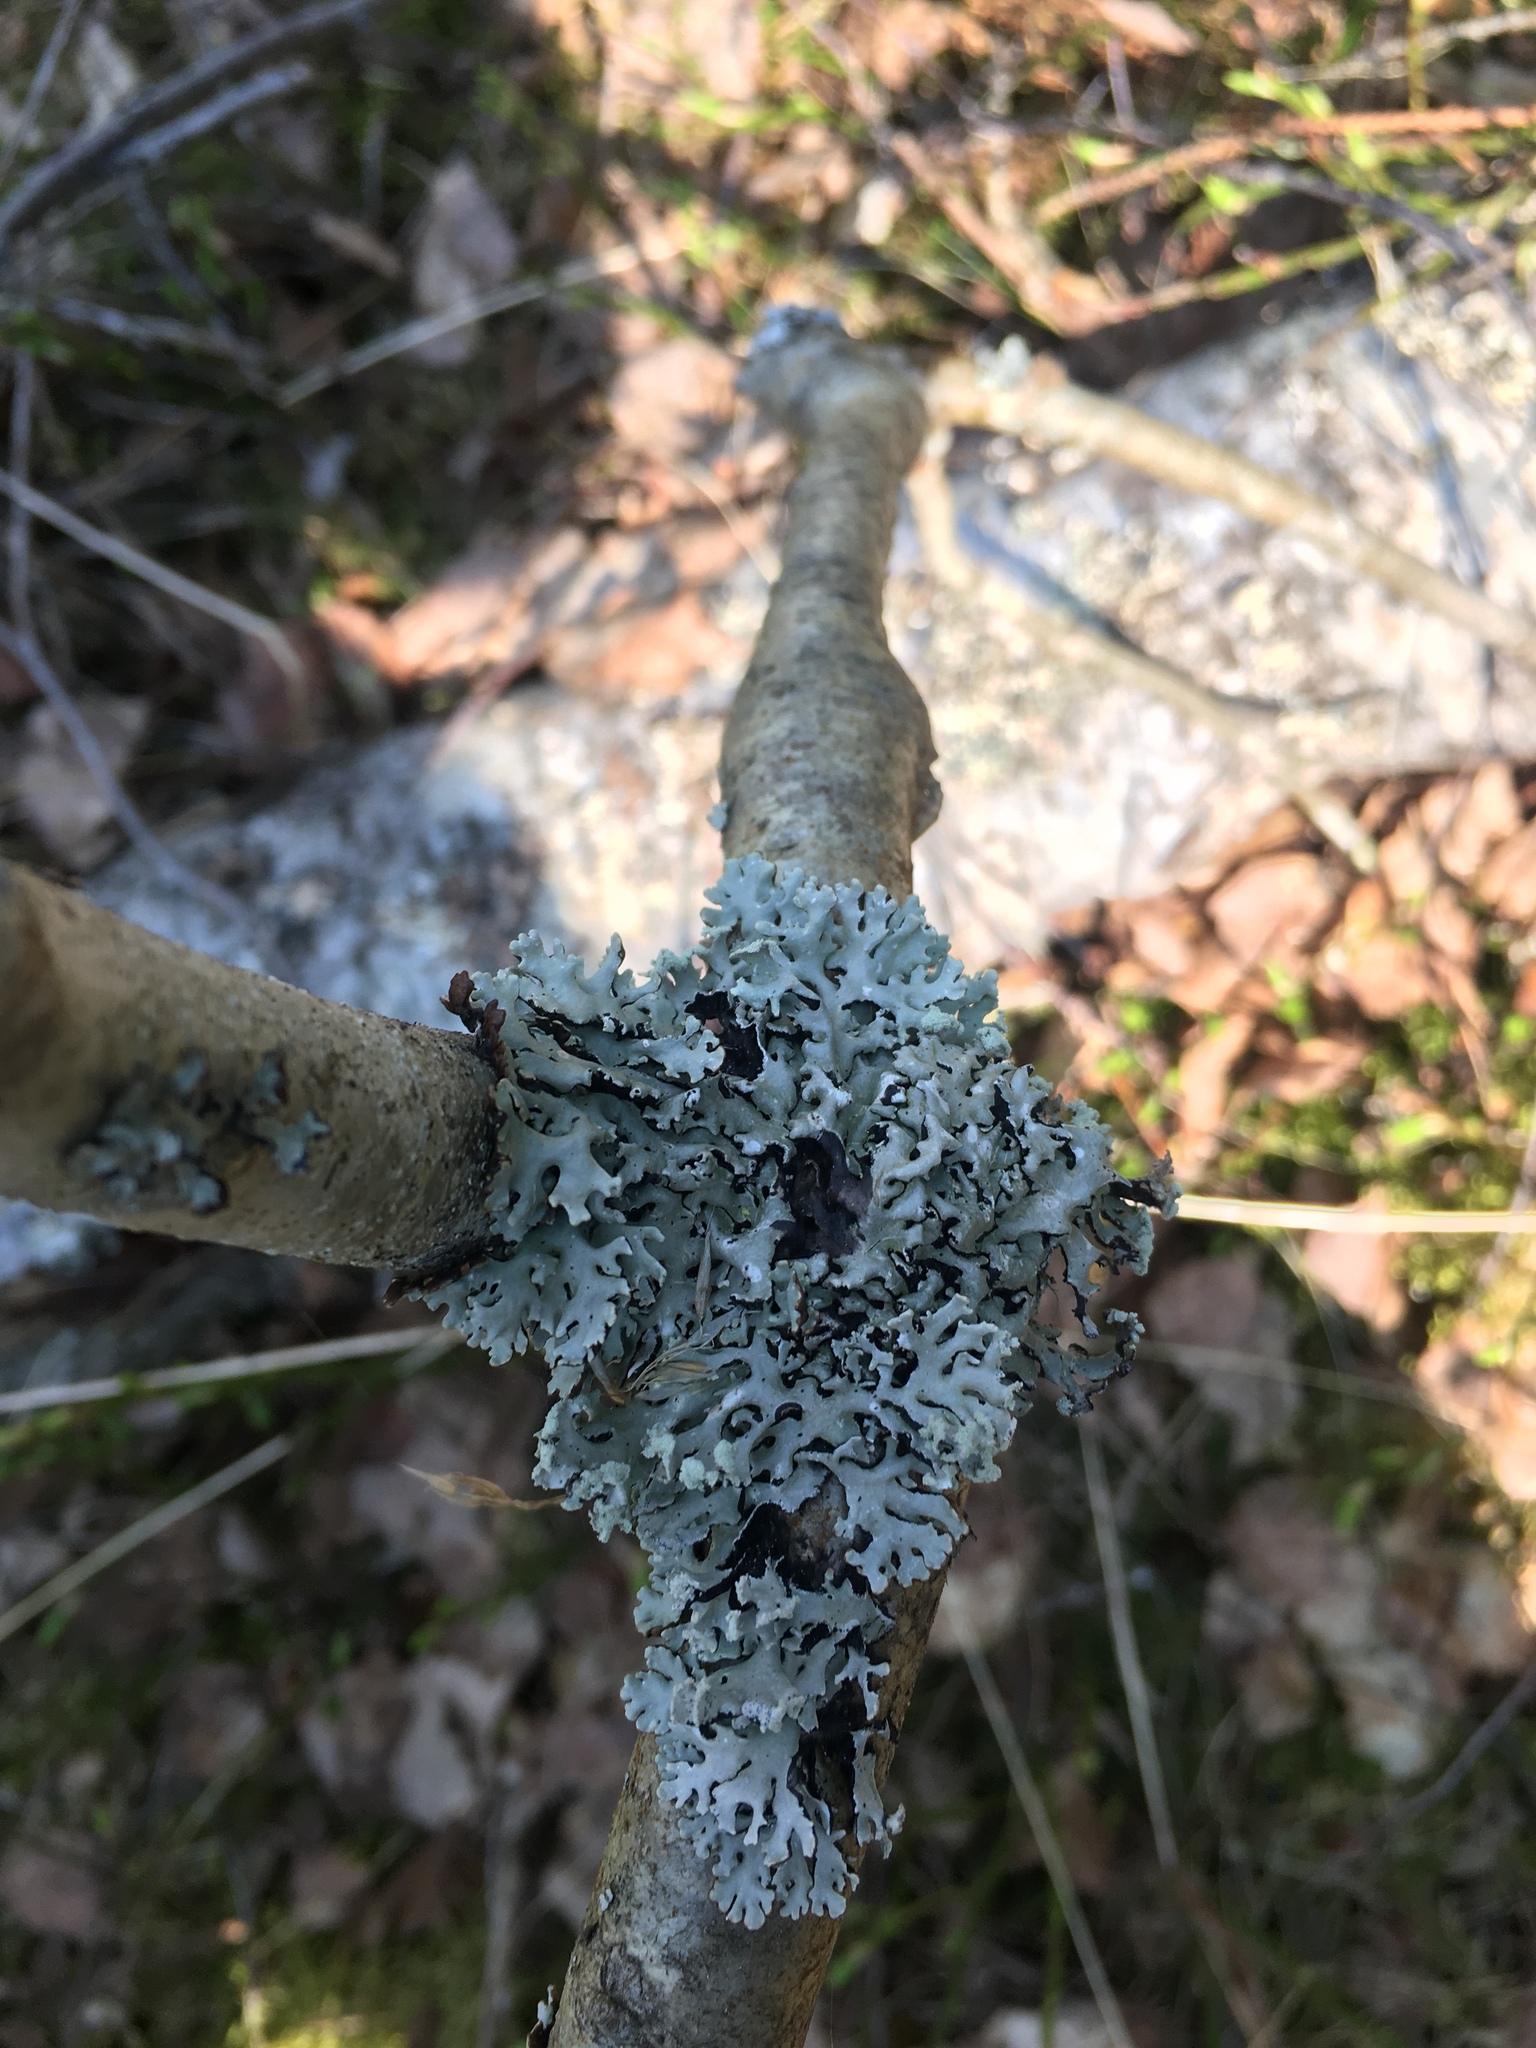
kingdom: Fungi
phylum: Ascomycota
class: Lecanoromycetes
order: Lecanorales
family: Parmeliaceae
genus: Hypogymnia
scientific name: Hypogymnia physodes
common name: Dark crottle
